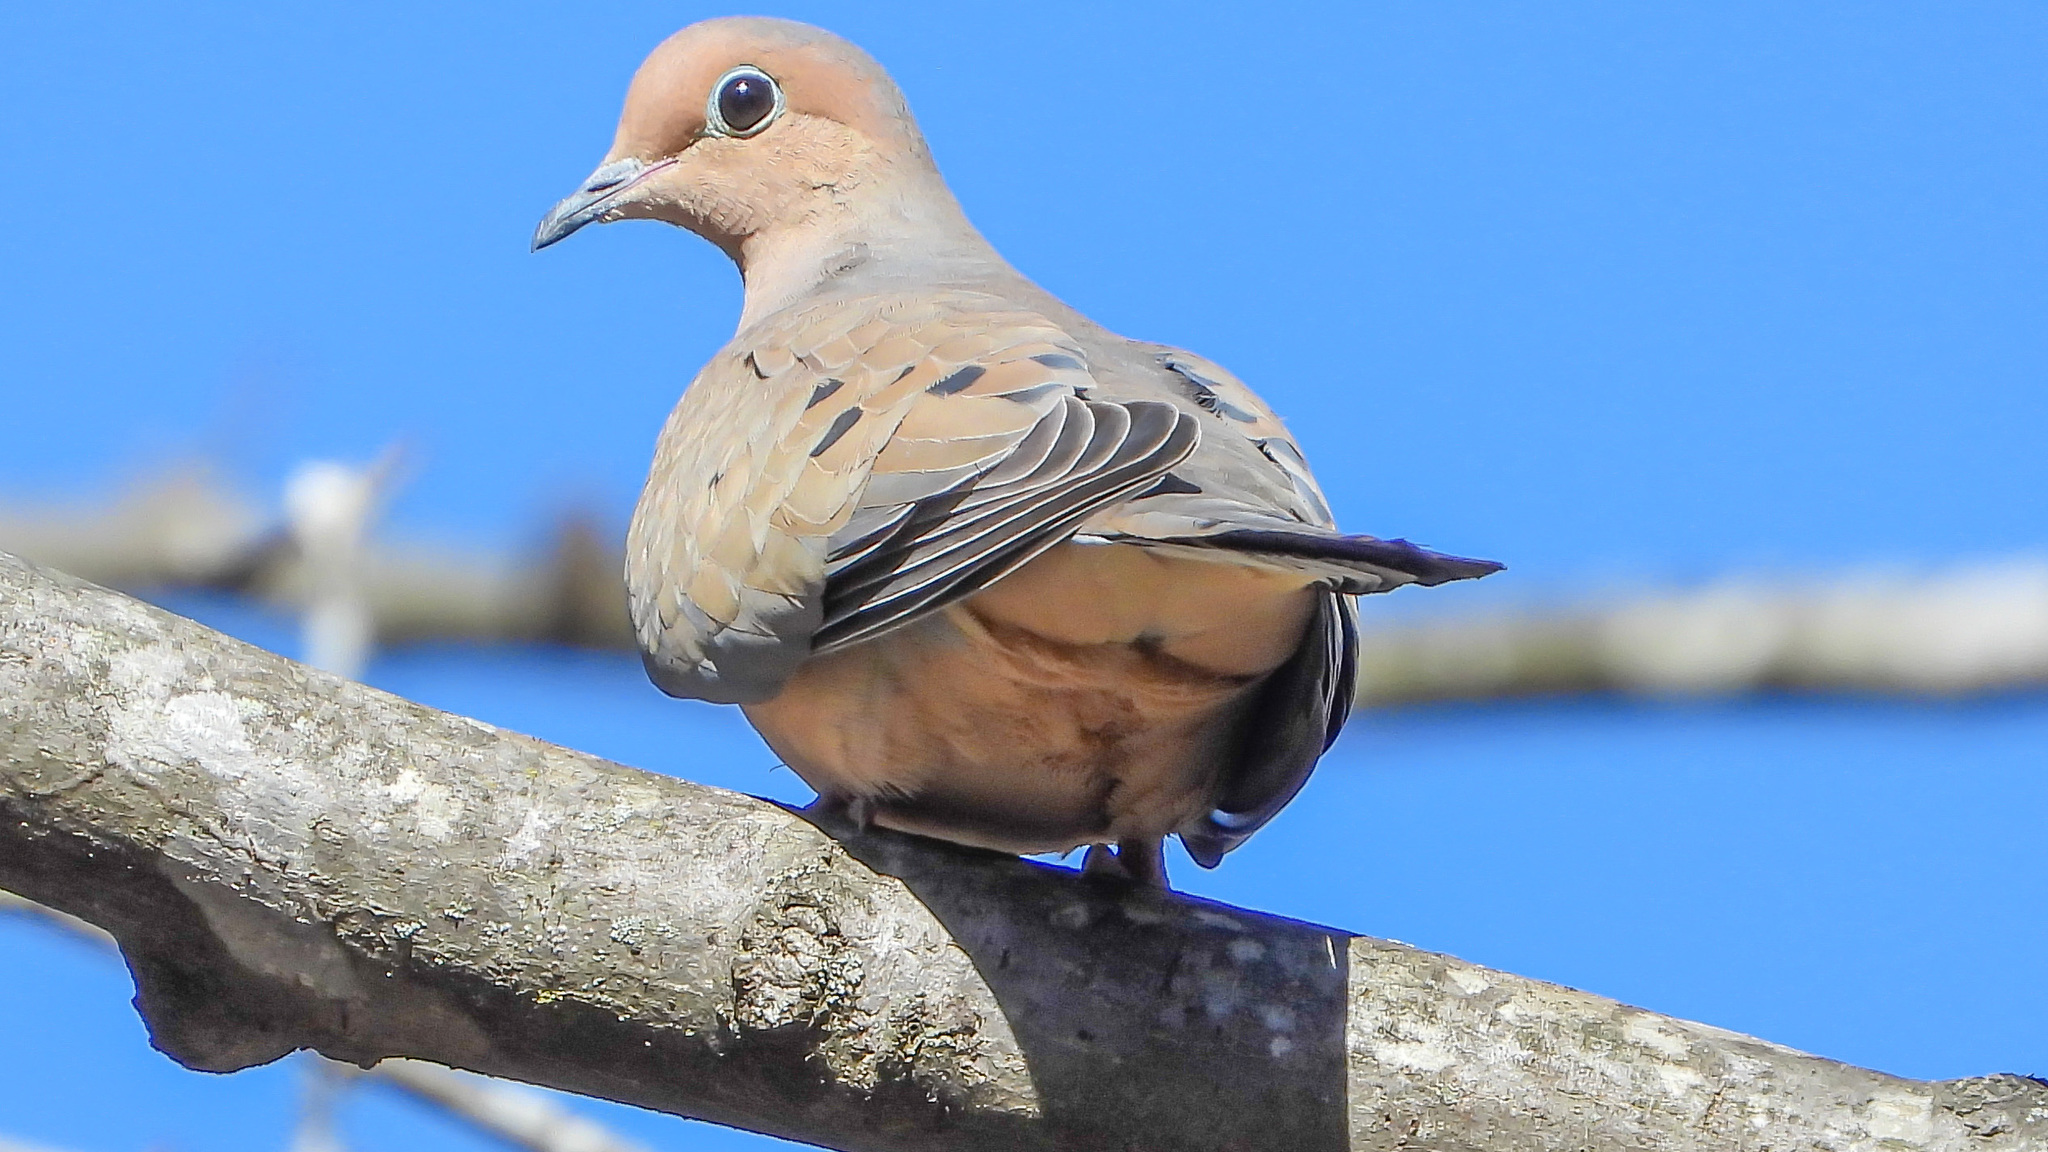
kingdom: Animalia
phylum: Chordata
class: Aves
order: Columbiformes
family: Columbidae
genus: Zenaida
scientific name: Zenaida macroura
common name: Mourning dove
